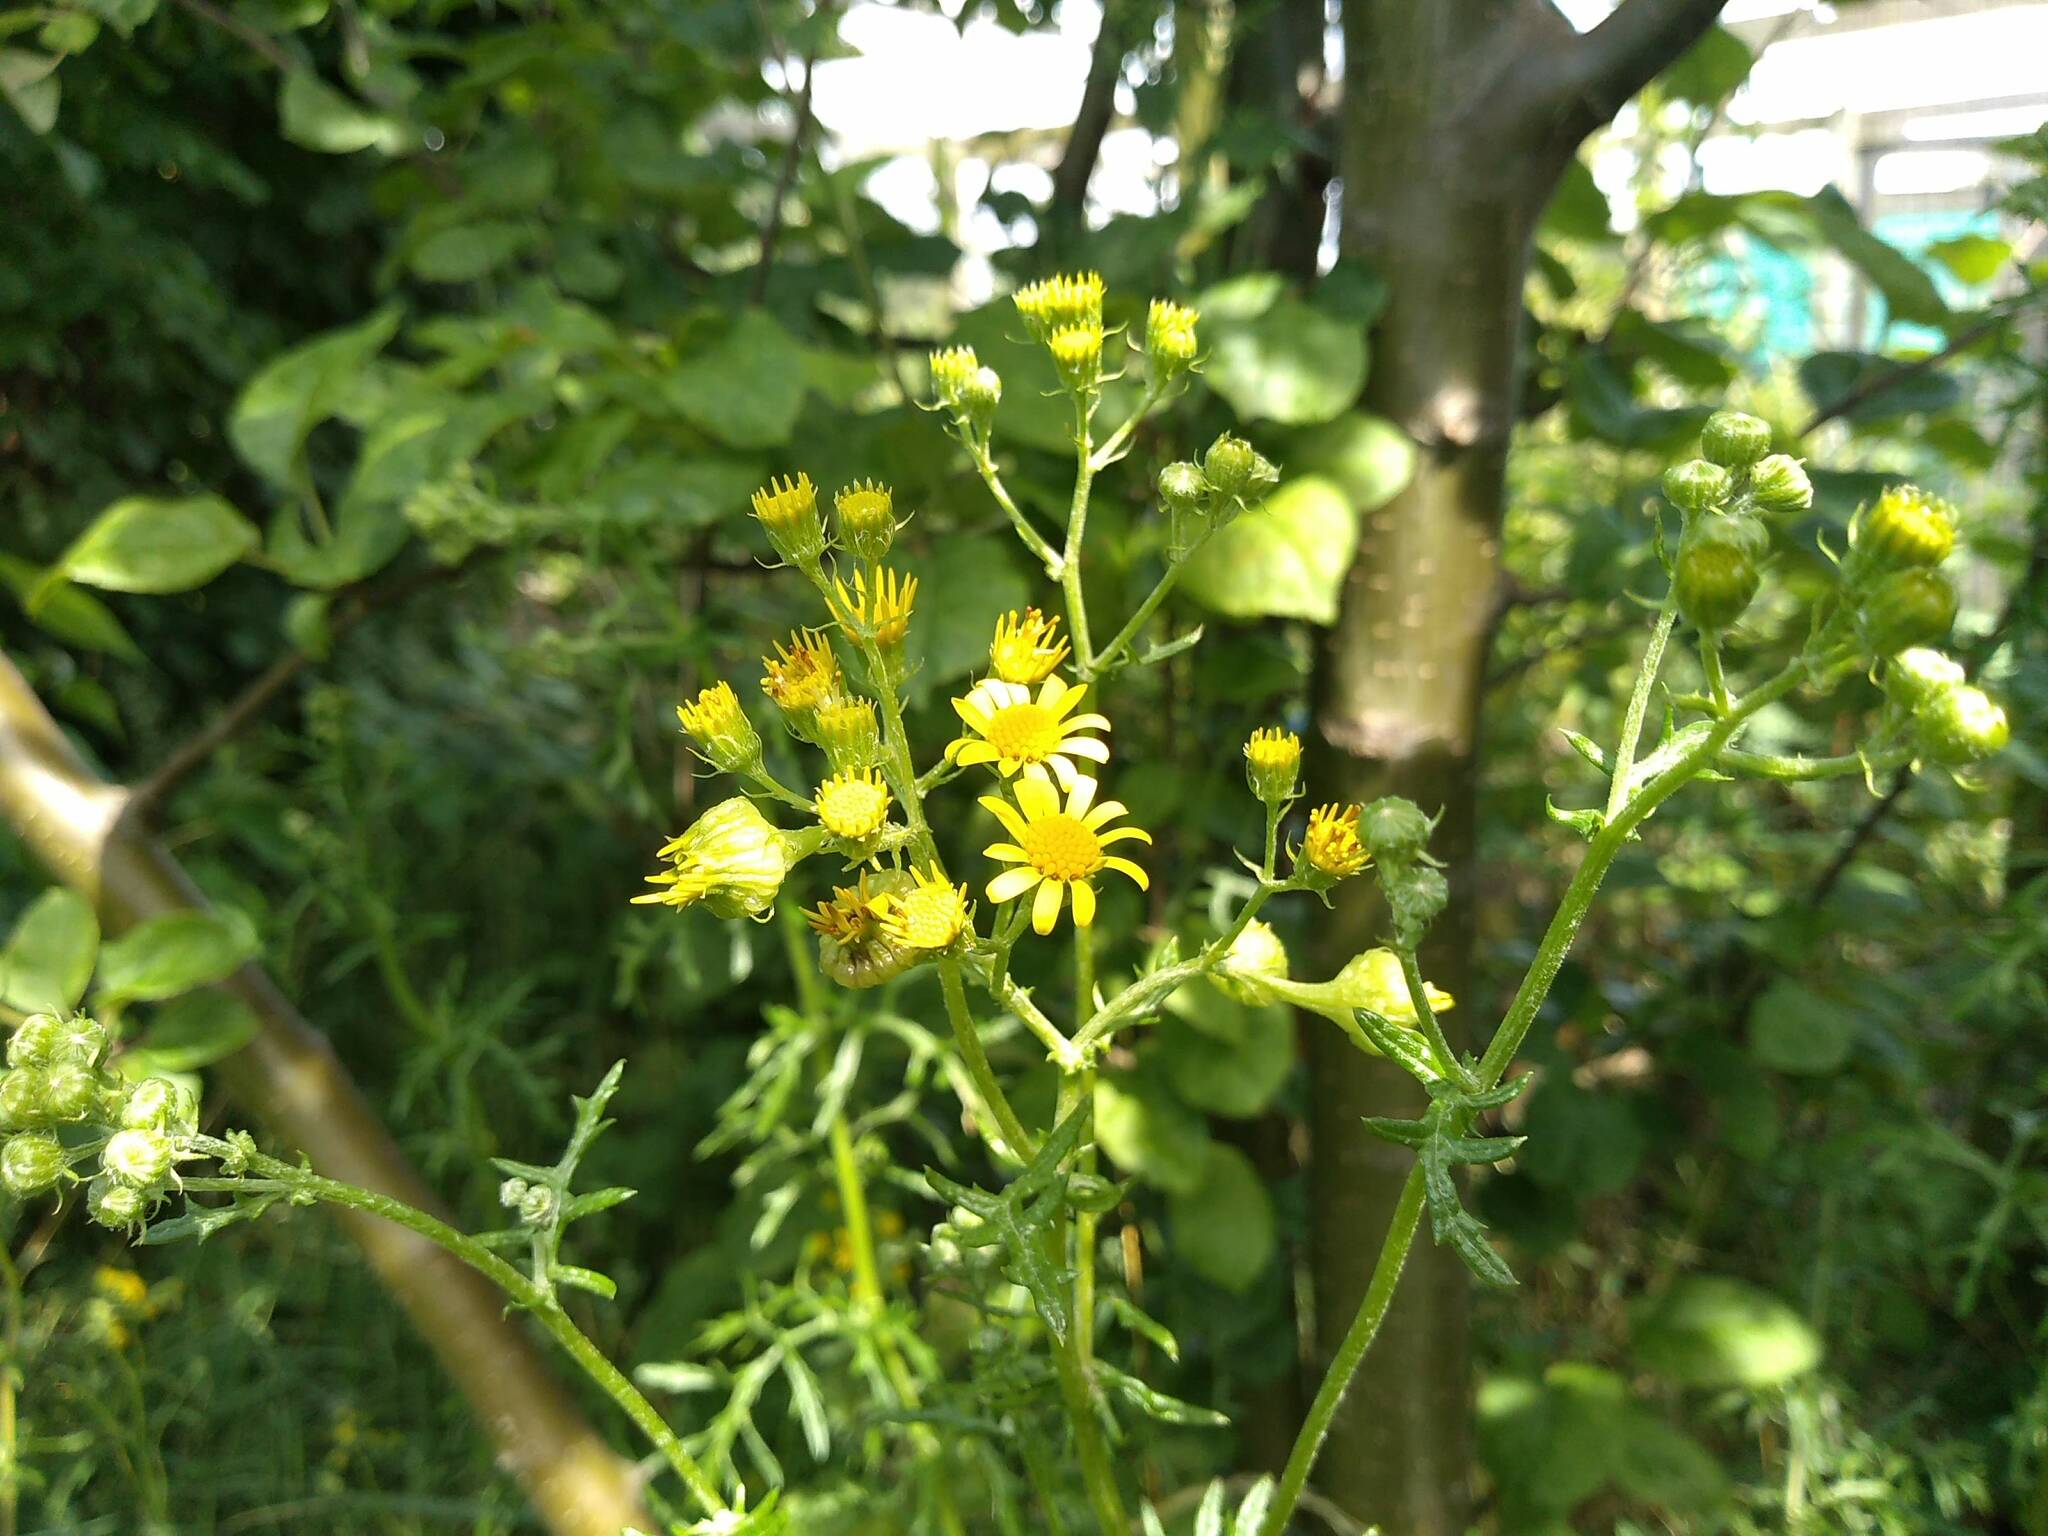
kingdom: Plantae
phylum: Tracheophyta
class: Magnoliopsida
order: Asterales
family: Asteraceae
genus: Jacobaea
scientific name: Jacobaea erucifolia
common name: Hoary ragwort
